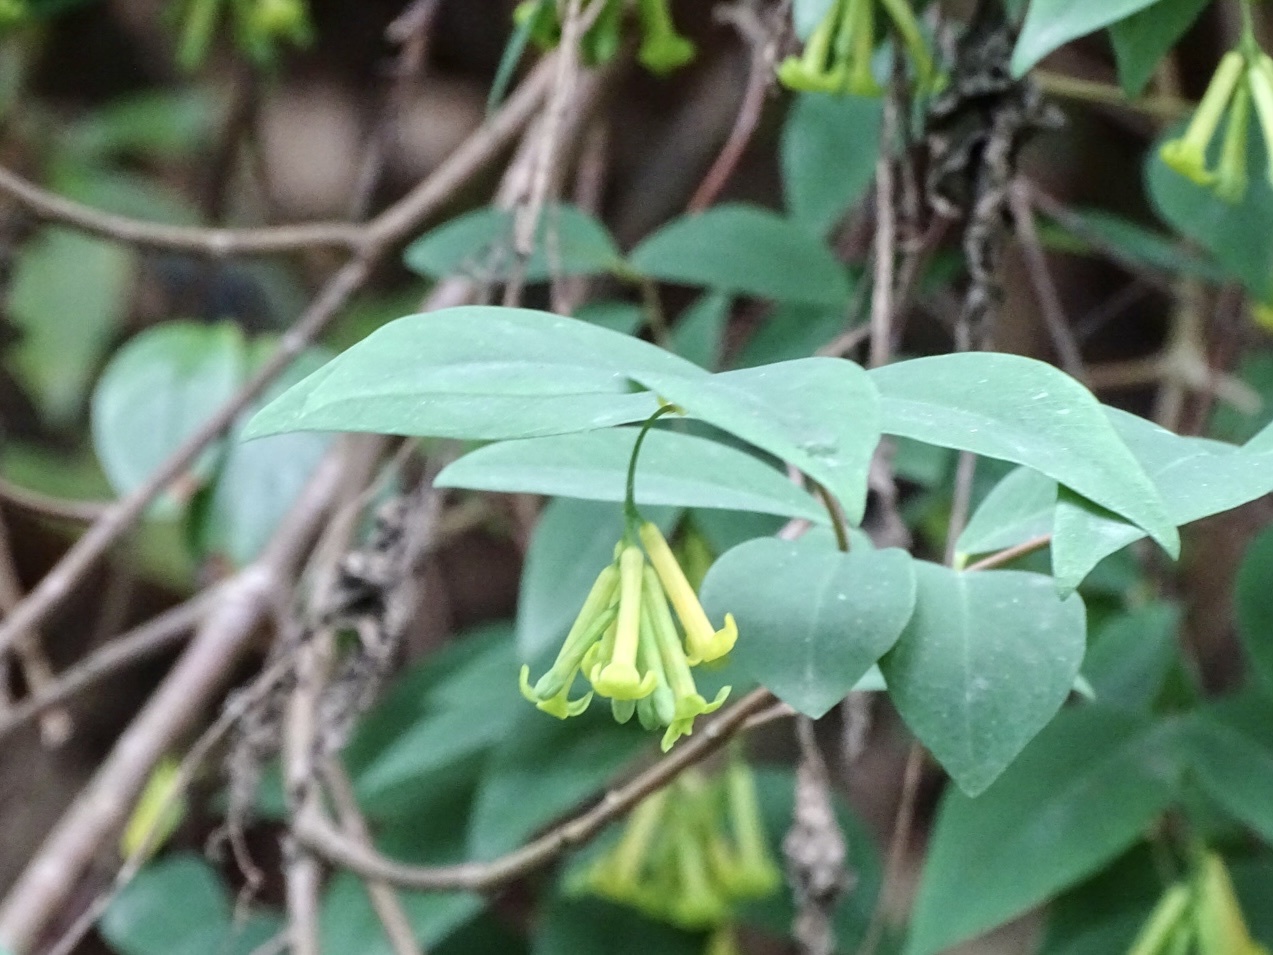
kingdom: Plantae
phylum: Tracheophyta
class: Magnoliopsida
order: Malvales
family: Thymelaeaceae
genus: Wikstroemia
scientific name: Wikstroemia nutans
